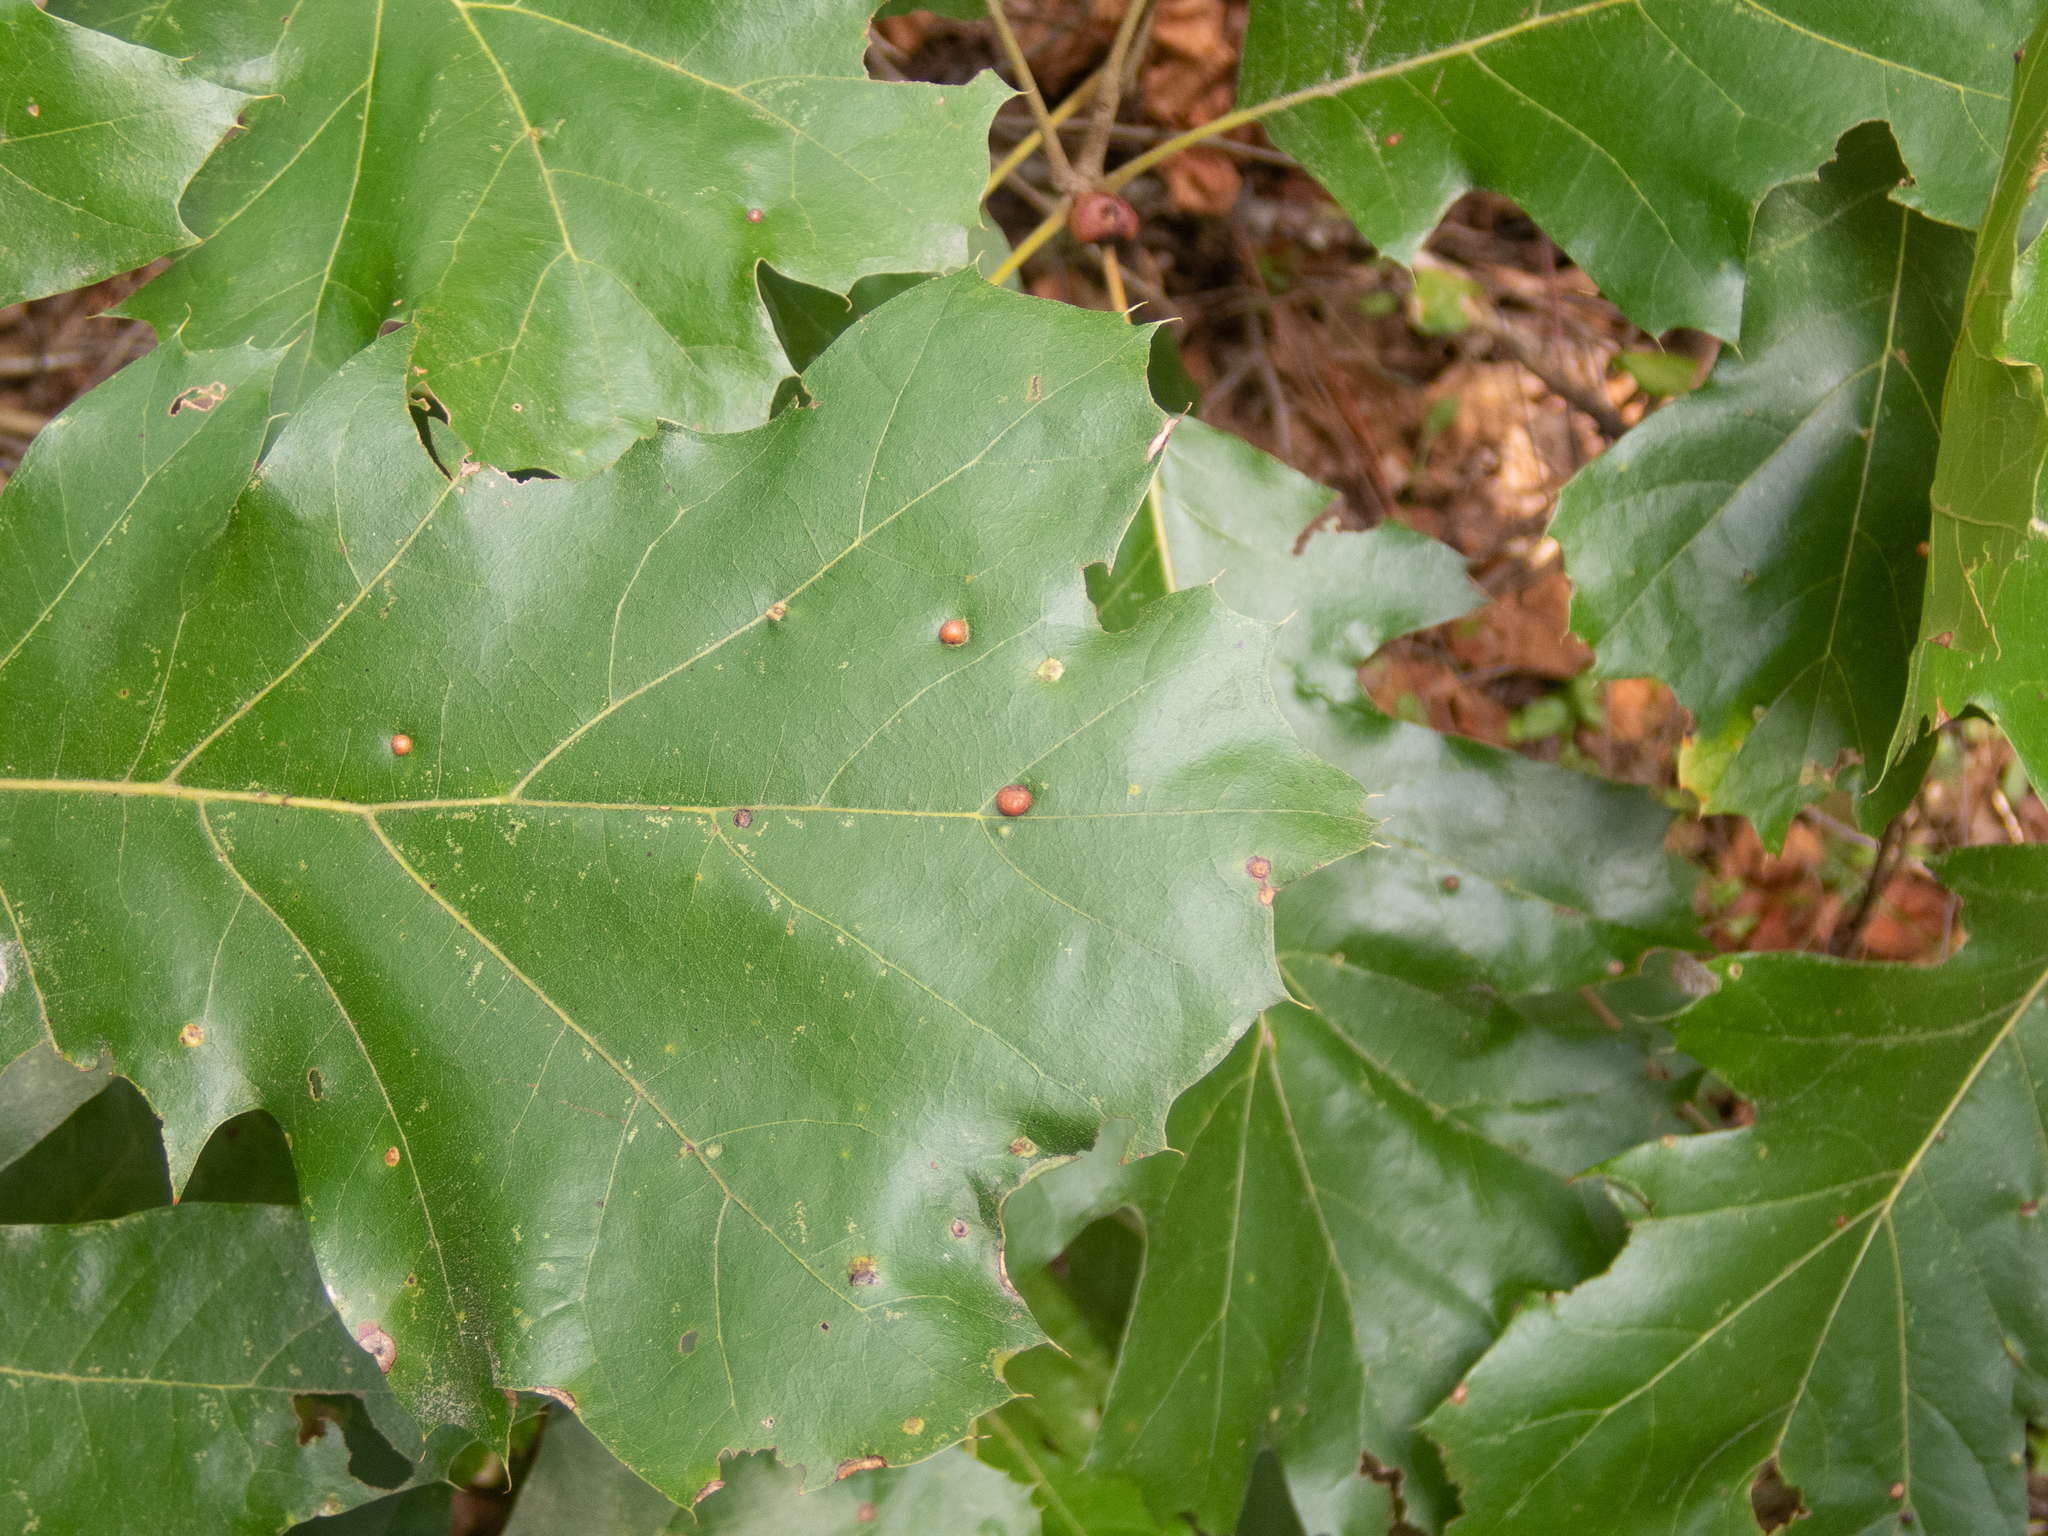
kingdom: Animalia
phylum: Arthropoda
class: Insecta
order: Diptera
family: Cecidomyiidae
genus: Polystepha
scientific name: Polystepha pilulae
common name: Oak leaf gall midge
